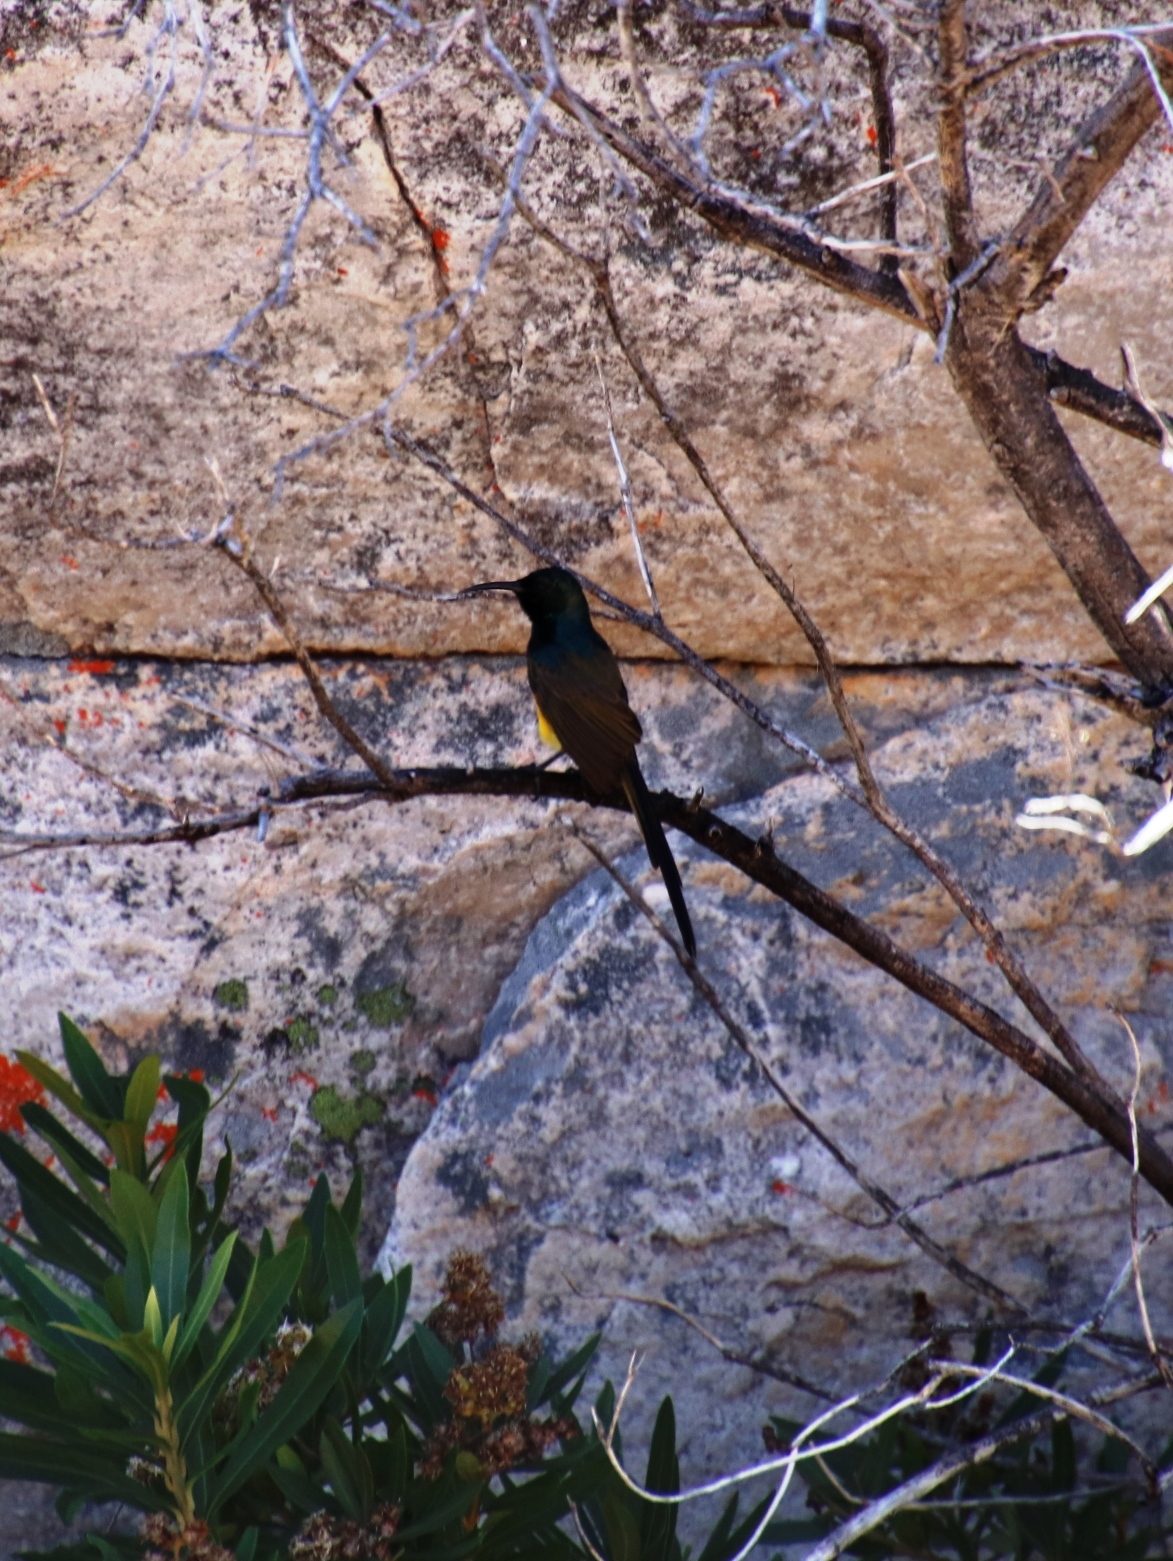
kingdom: Animalia
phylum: Chordata
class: Aves
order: Passeriformes
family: Nectariniidae
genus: Anthobaphes
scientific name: Anthobaphes violacea
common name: Orange-breasted sunbird
